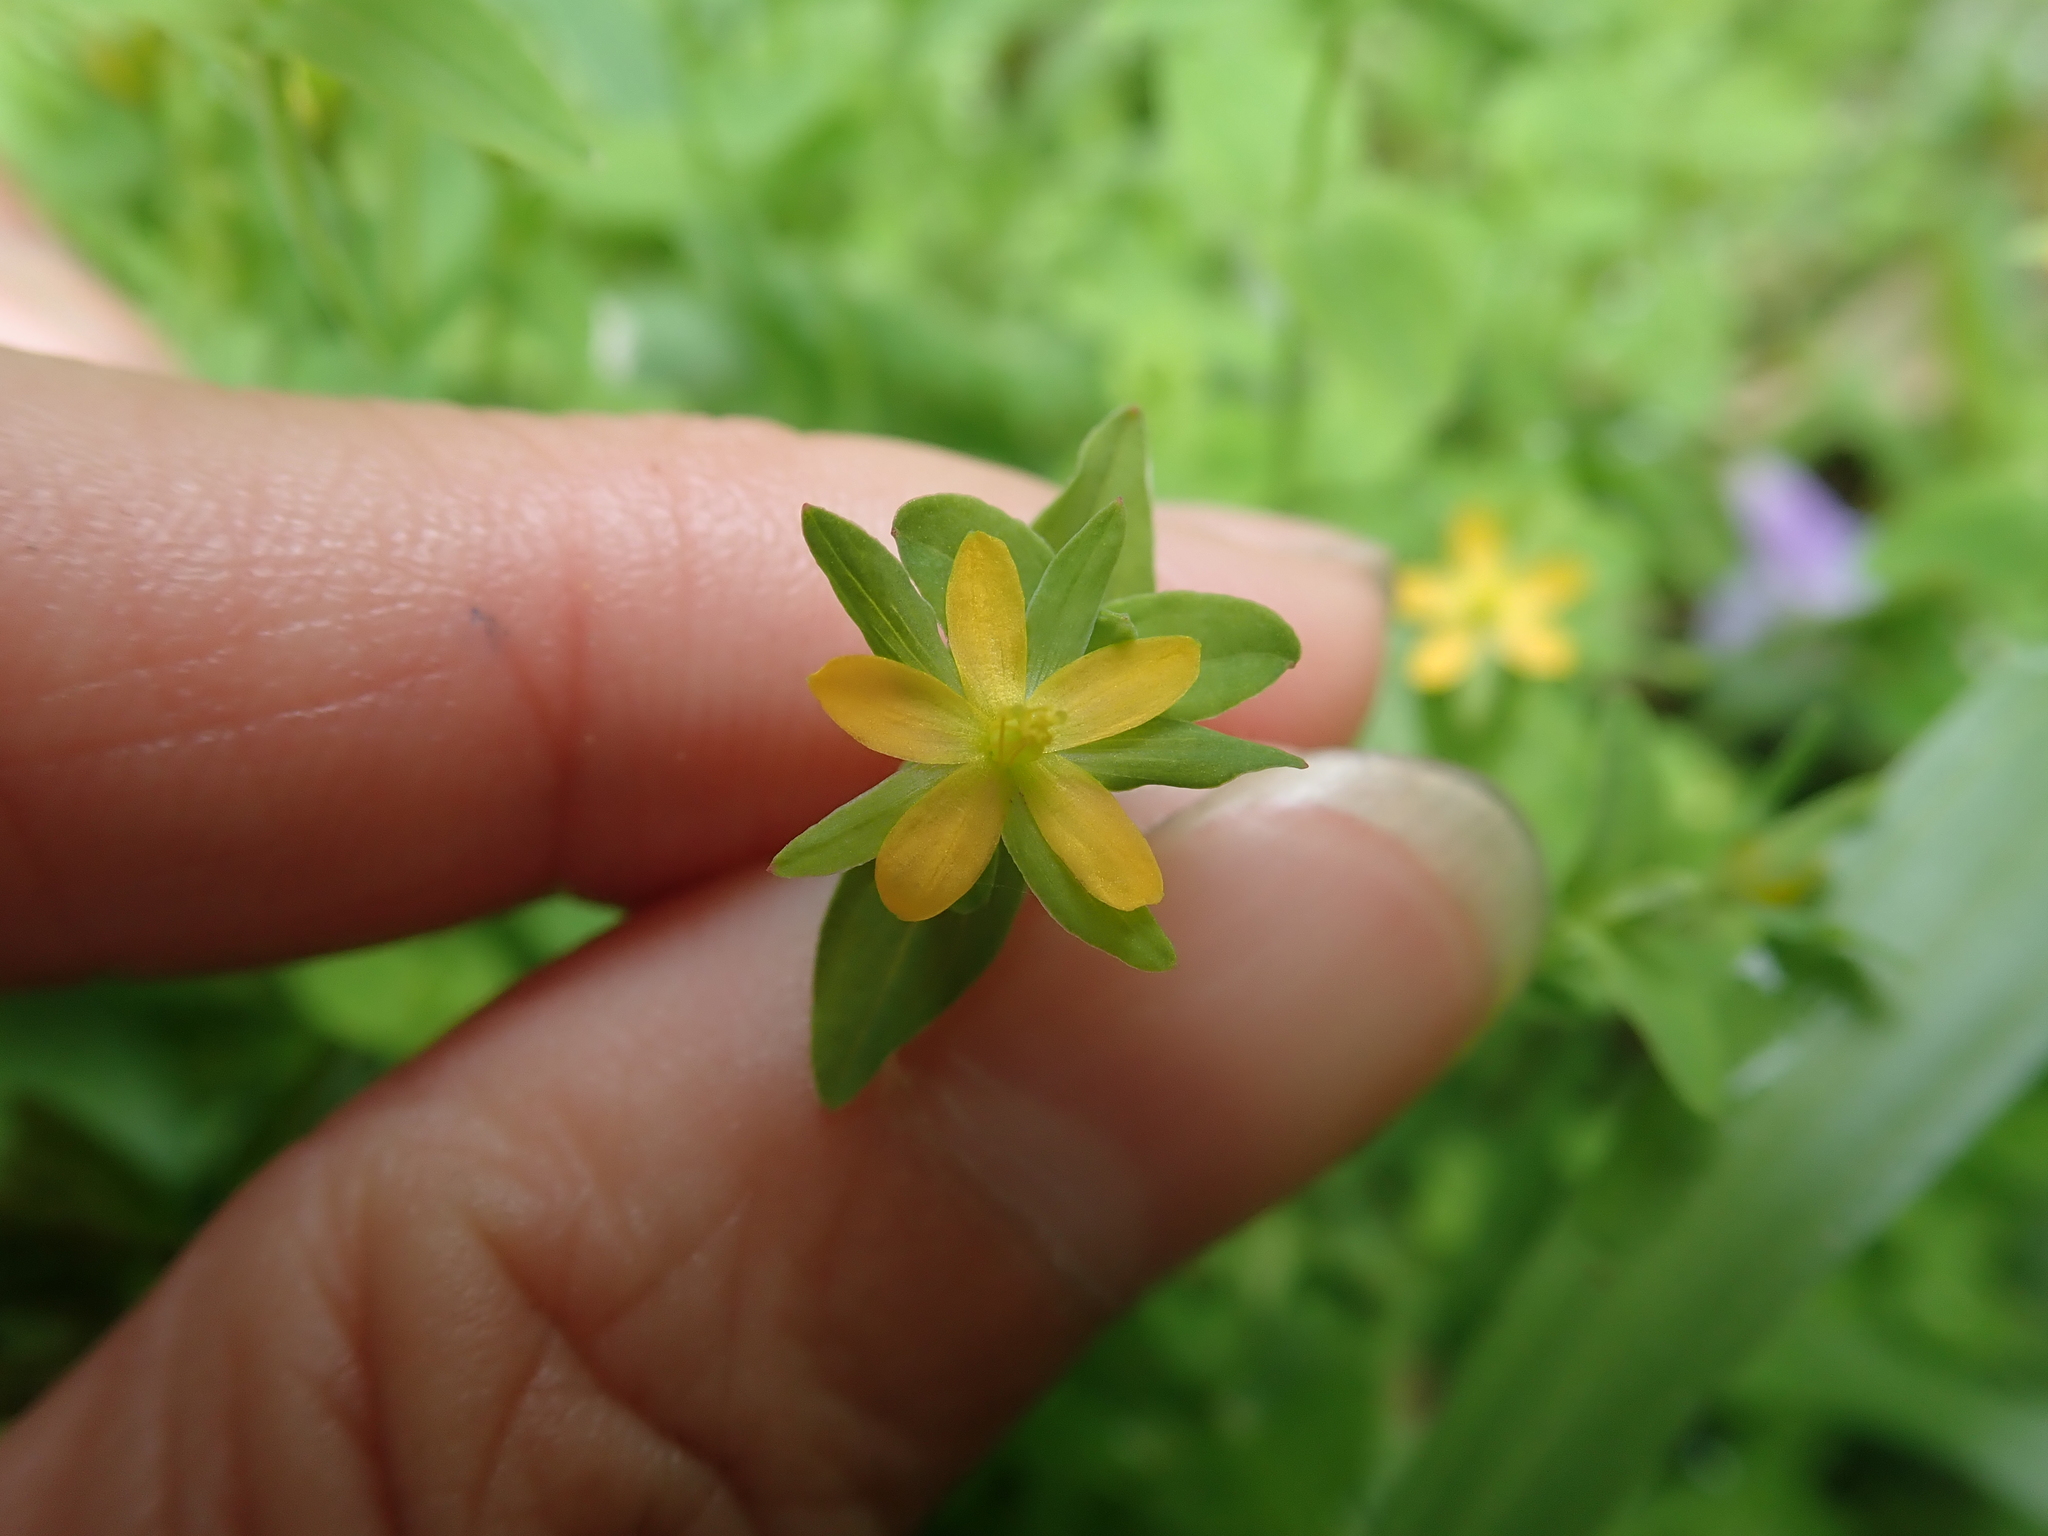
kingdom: Plantae
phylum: Tracheophyta
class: Magnoliopsida
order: Malpighiales
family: Hypericaceae
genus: Hypericum
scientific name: Hypericum japonicum
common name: Matted st. john's-wort
